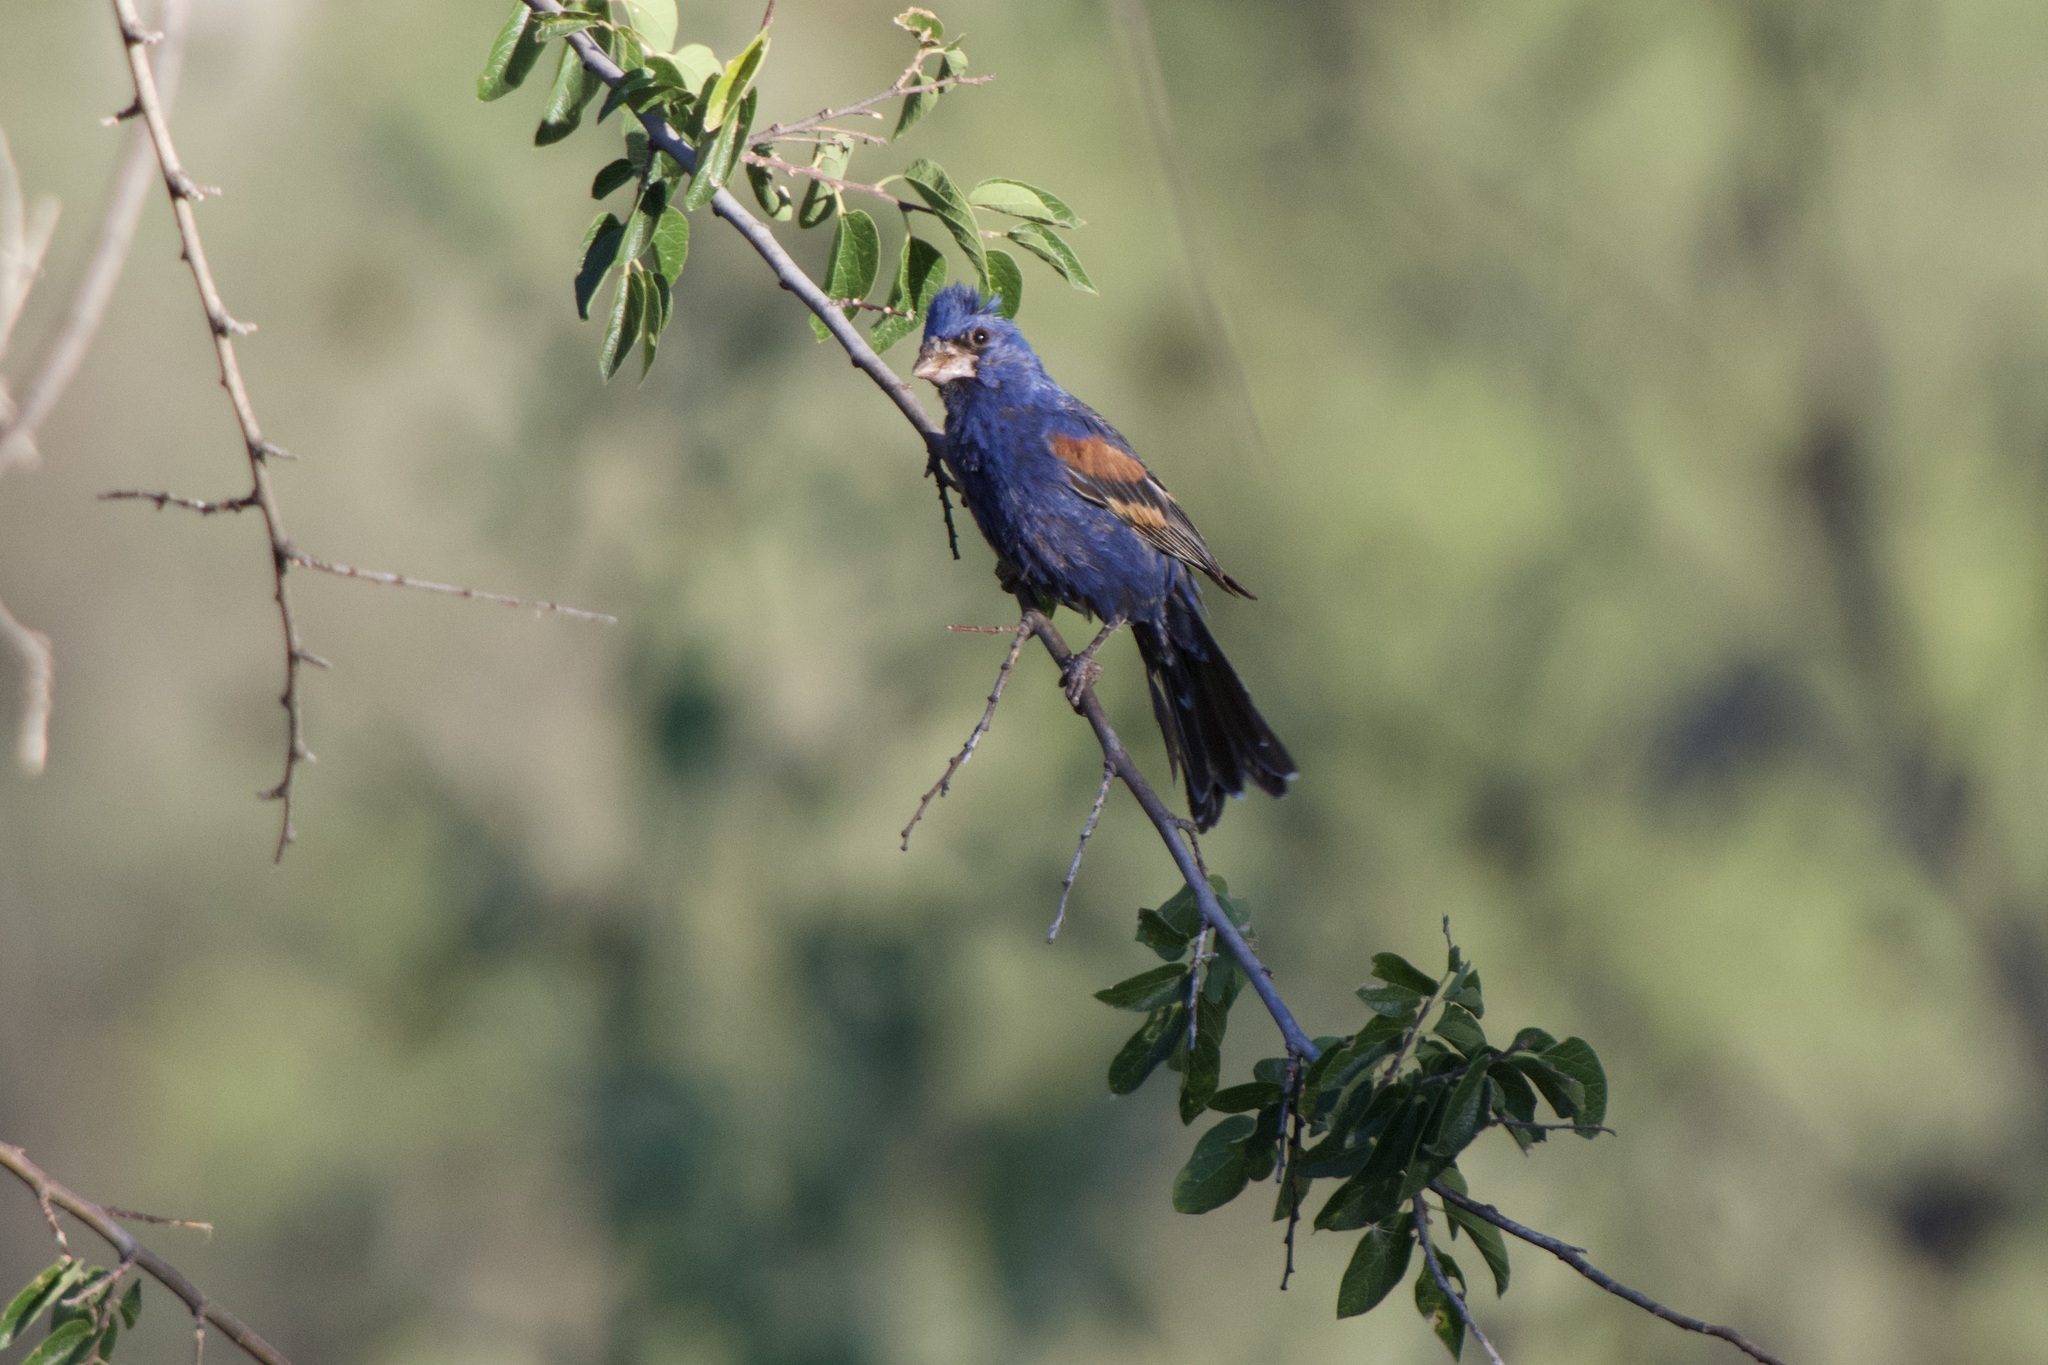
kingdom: Animalia
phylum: Chordata
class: Aves
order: Passeriformes
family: Cardinalidae
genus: Passerina
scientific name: Passerina caerulea
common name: Blue grosbeak
